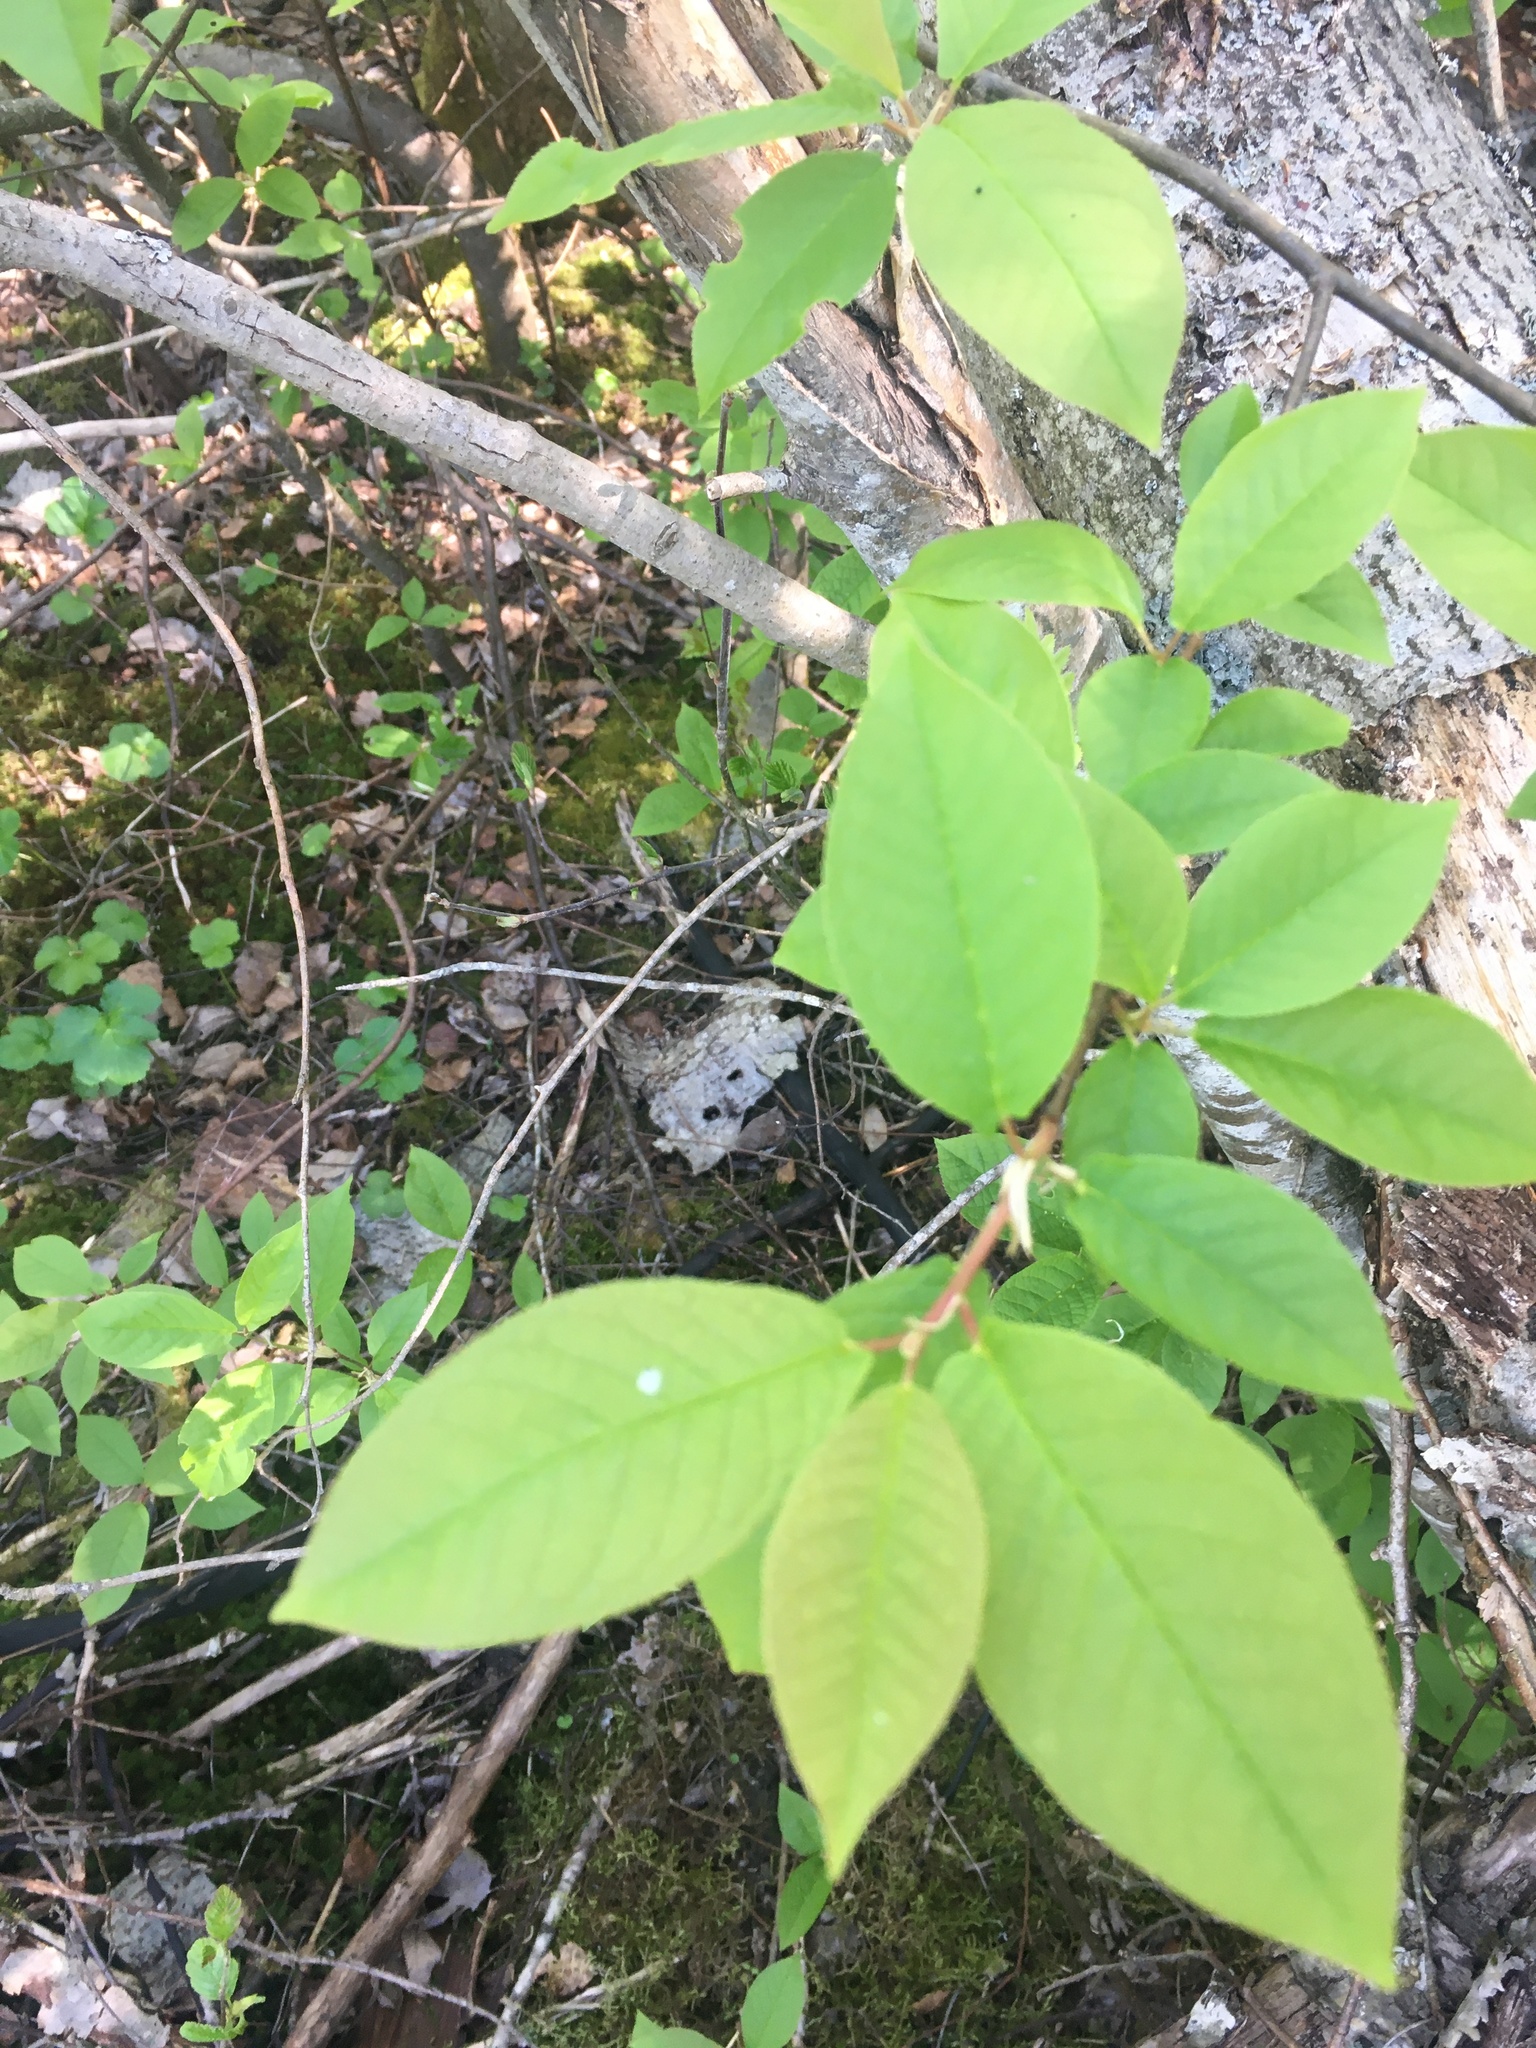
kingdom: Plantae
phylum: Tracheophyta
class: Magnoliopsida
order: Rosales
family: Rosaceae
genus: Prunus
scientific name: Prunus padus
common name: Bird cherry
